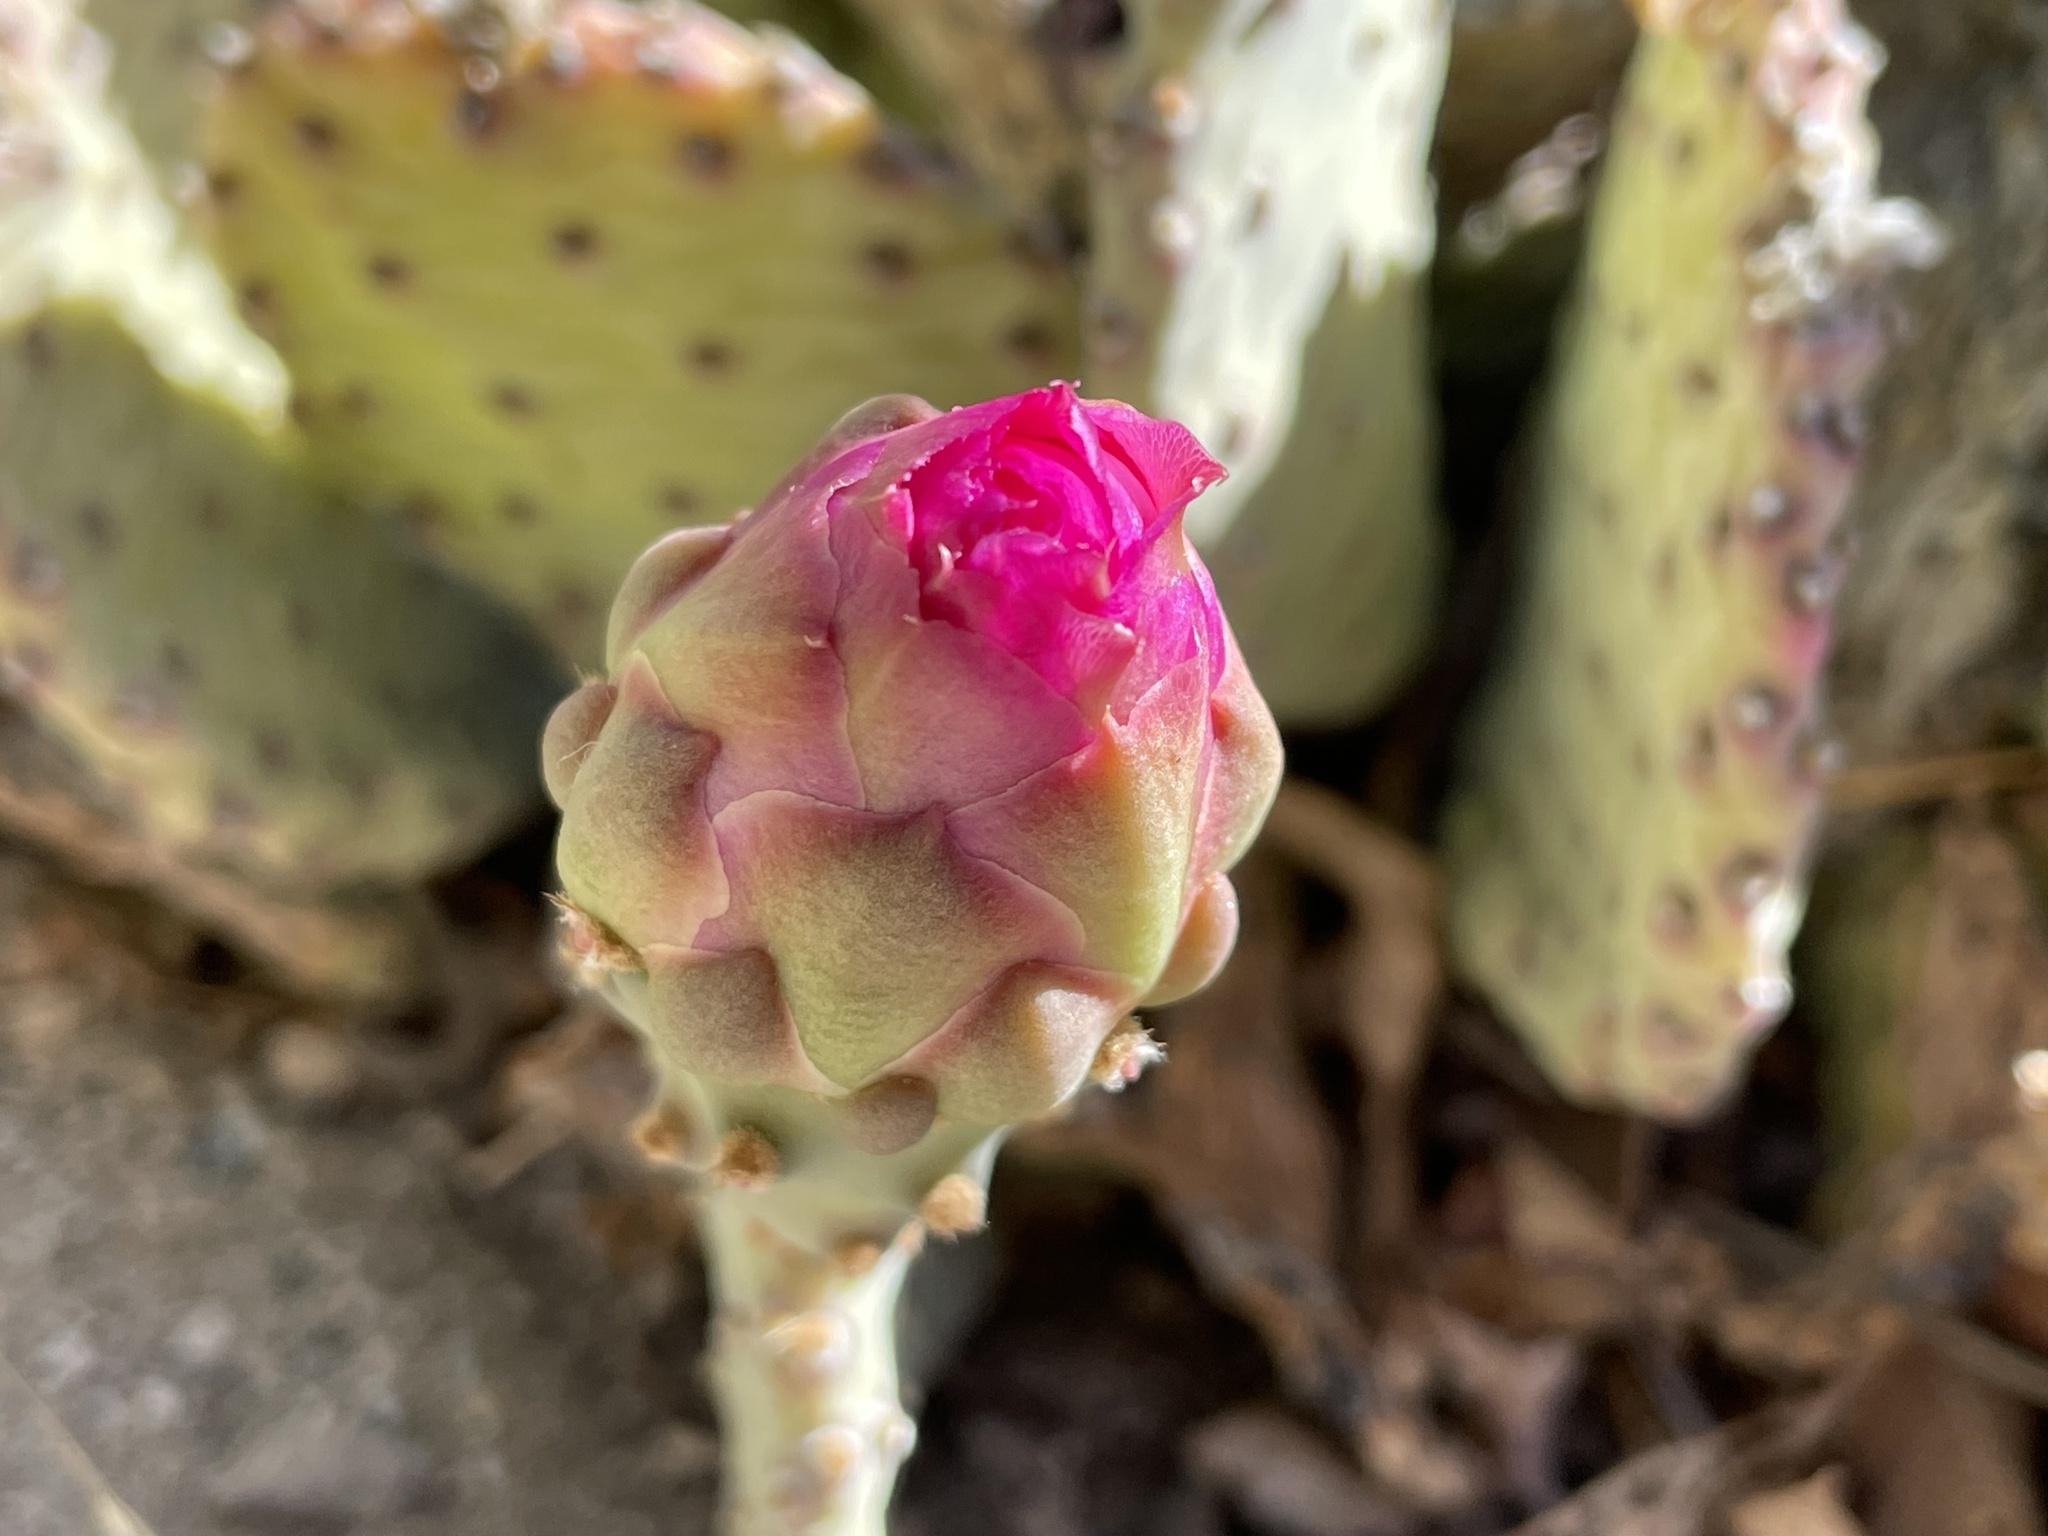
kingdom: Plantae
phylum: Tracheophyta
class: Magnoliopsida
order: Caryophyllales
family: Cactaceae
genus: Opuntia
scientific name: Opuntia basilaris
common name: Beavertail prickly-pear
